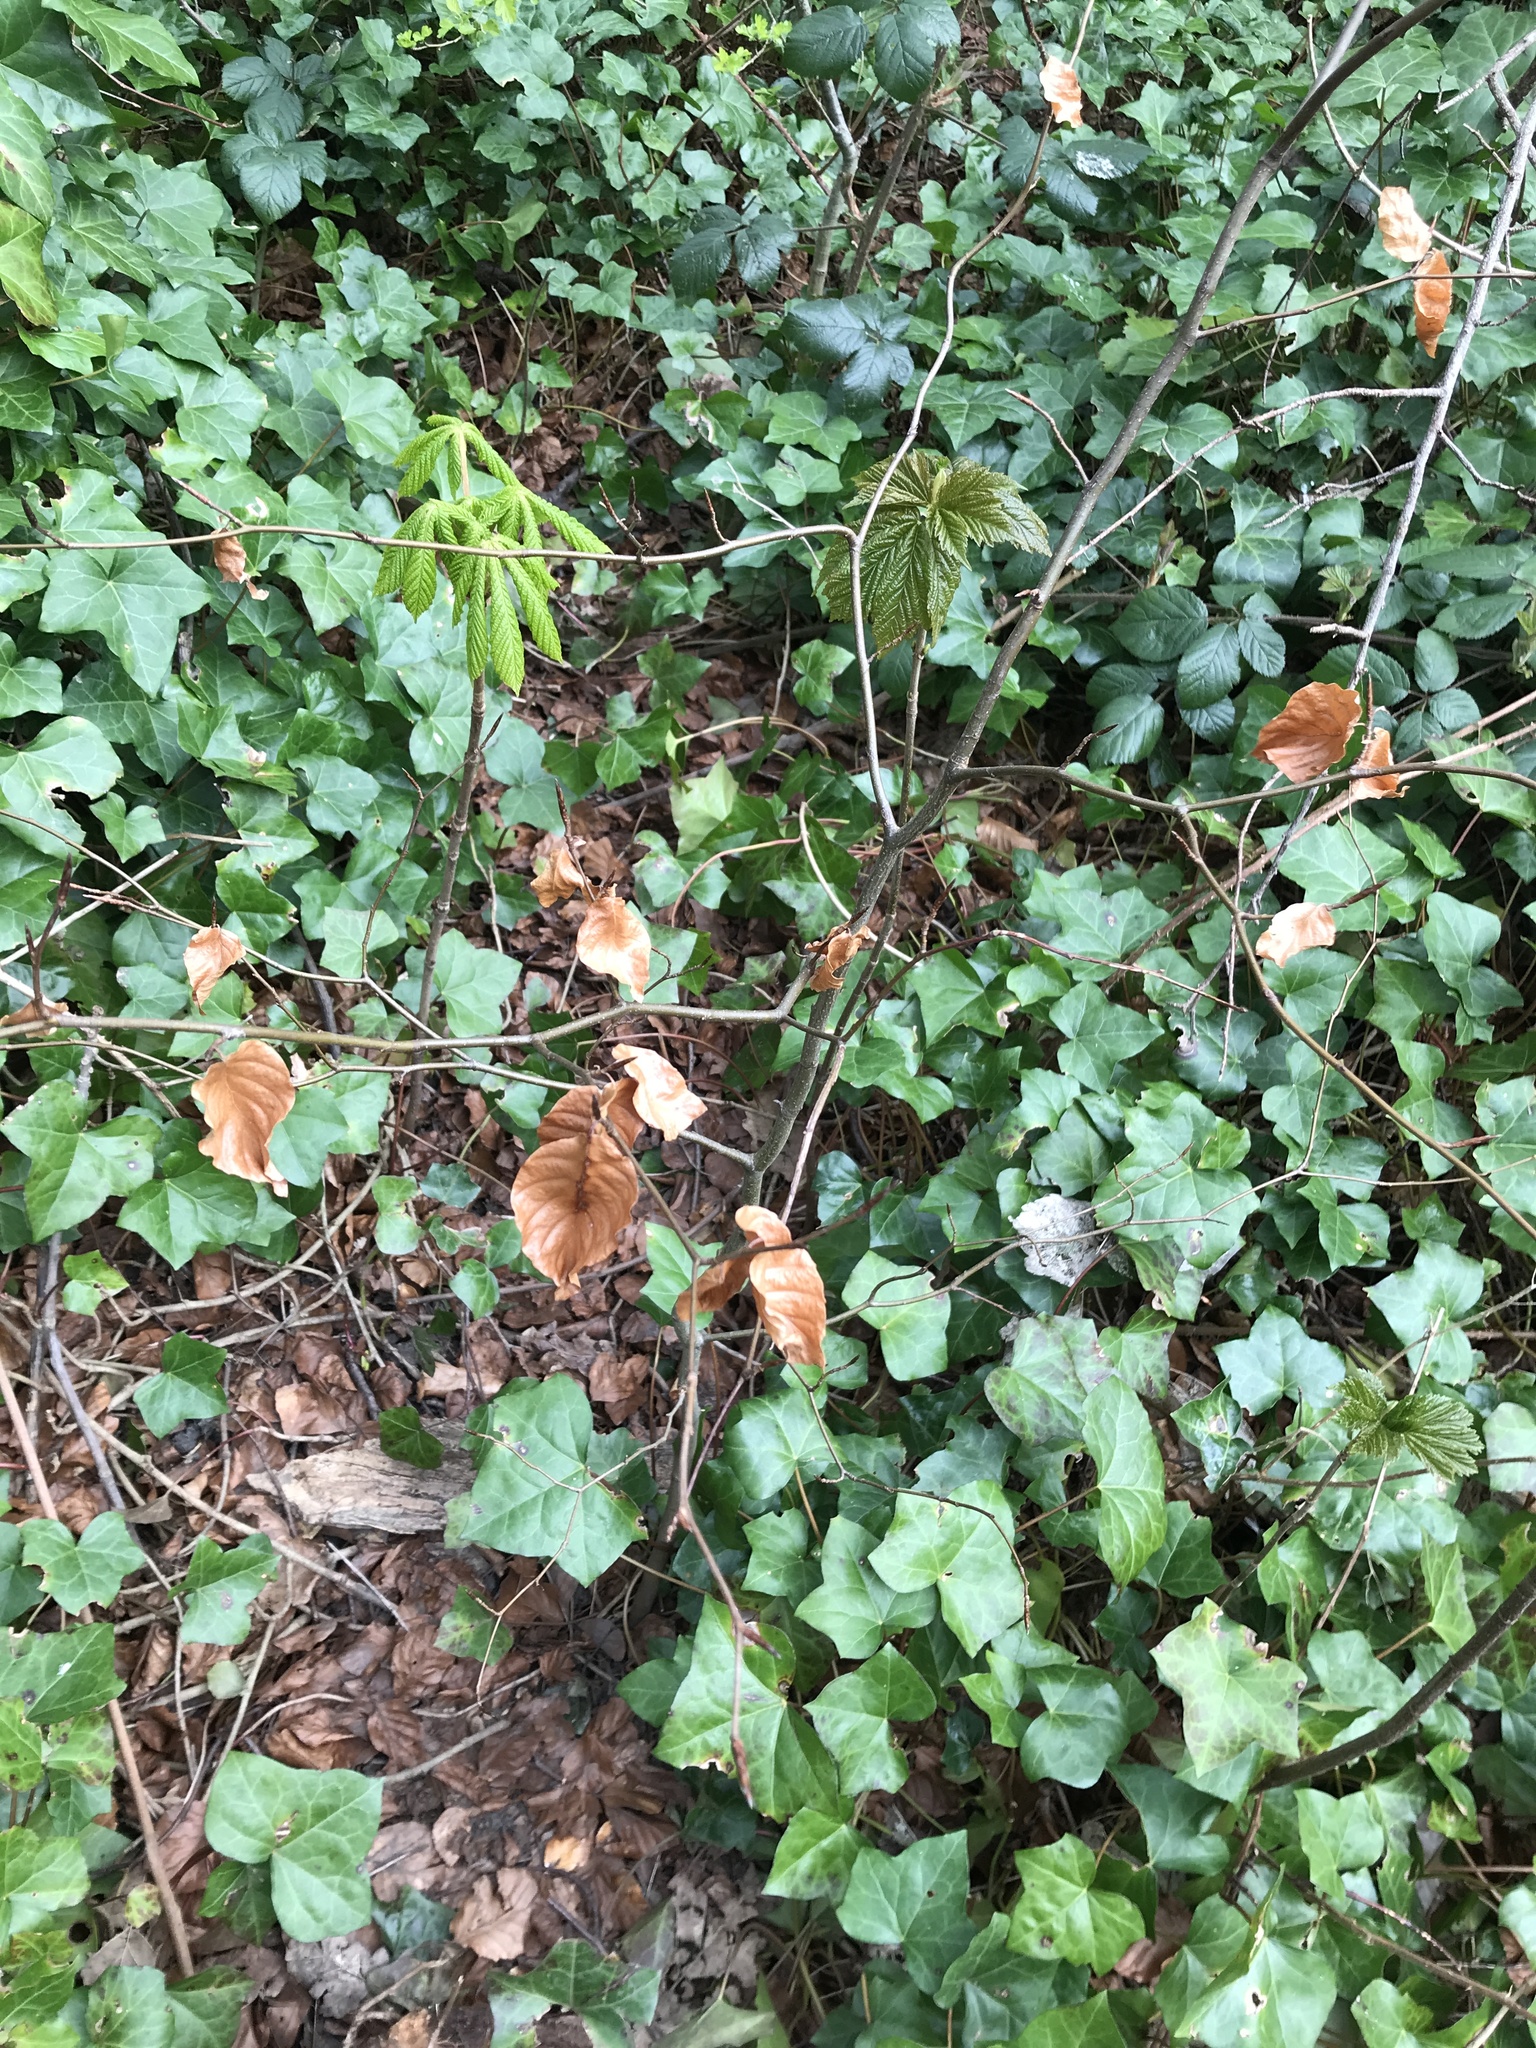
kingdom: Plantae
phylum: Tracheophyta
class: Magnoliopsida
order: Fagales
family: Fagaceae
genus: Fagus
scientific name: Fagus sylvatica
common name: Beech
